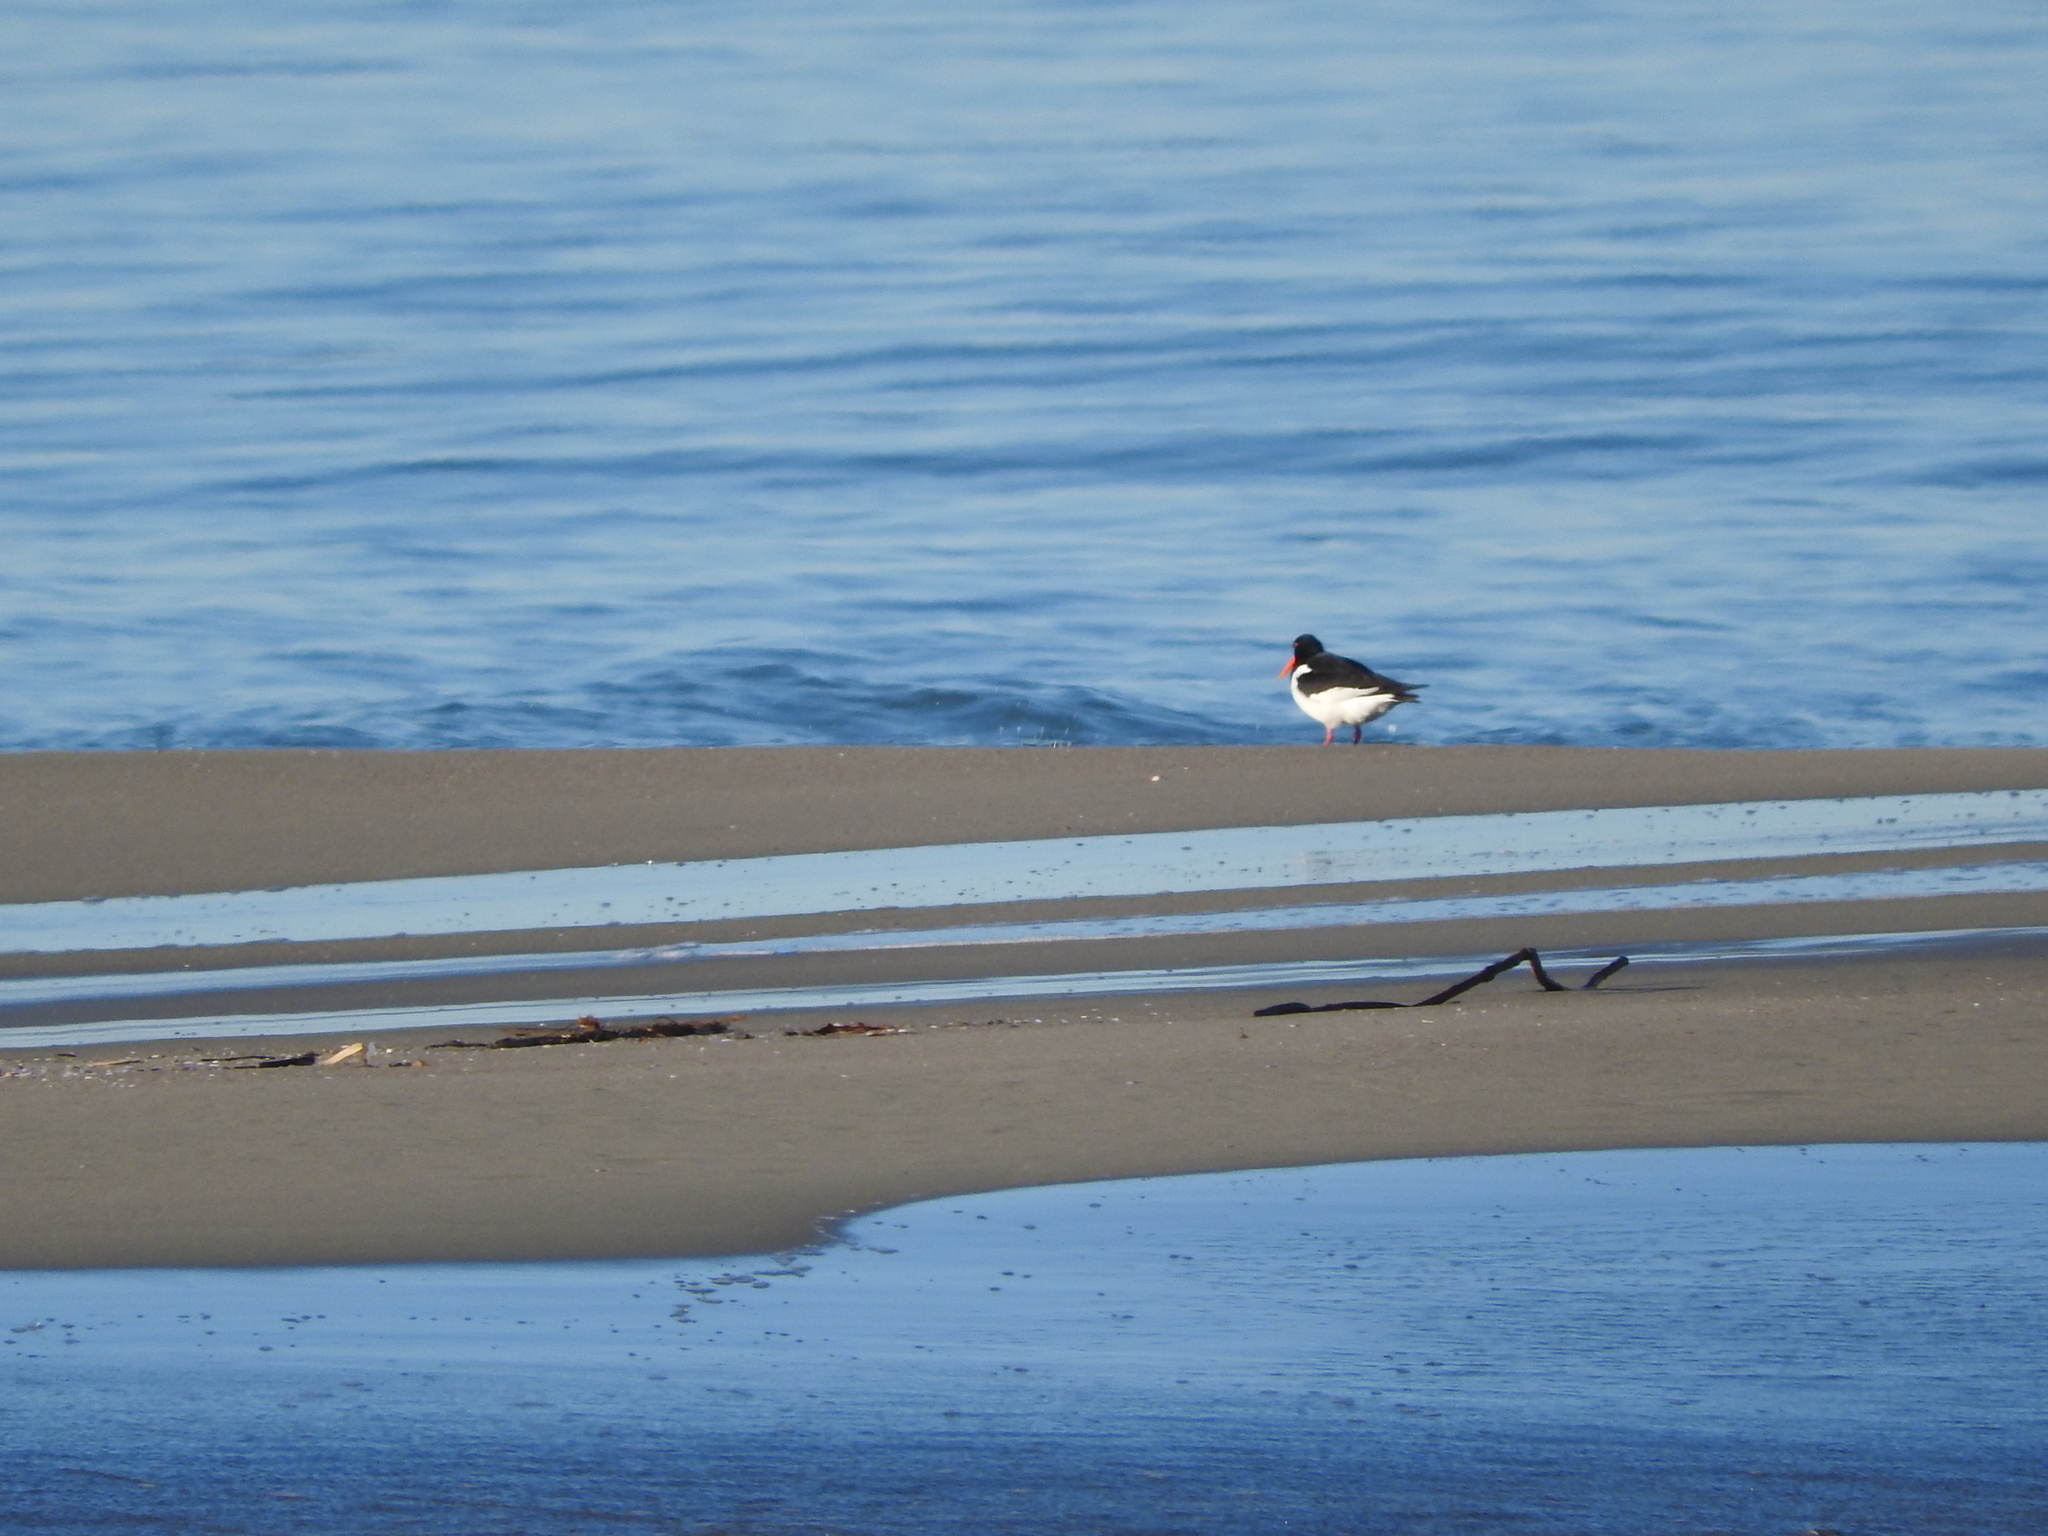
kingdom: Animalia
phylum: Chordata
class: Aves
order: Charadriiformes
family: Haematopodidae
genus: Haematopus
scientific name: Haematopus ostralegus
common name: Eurasian oystercatcher
